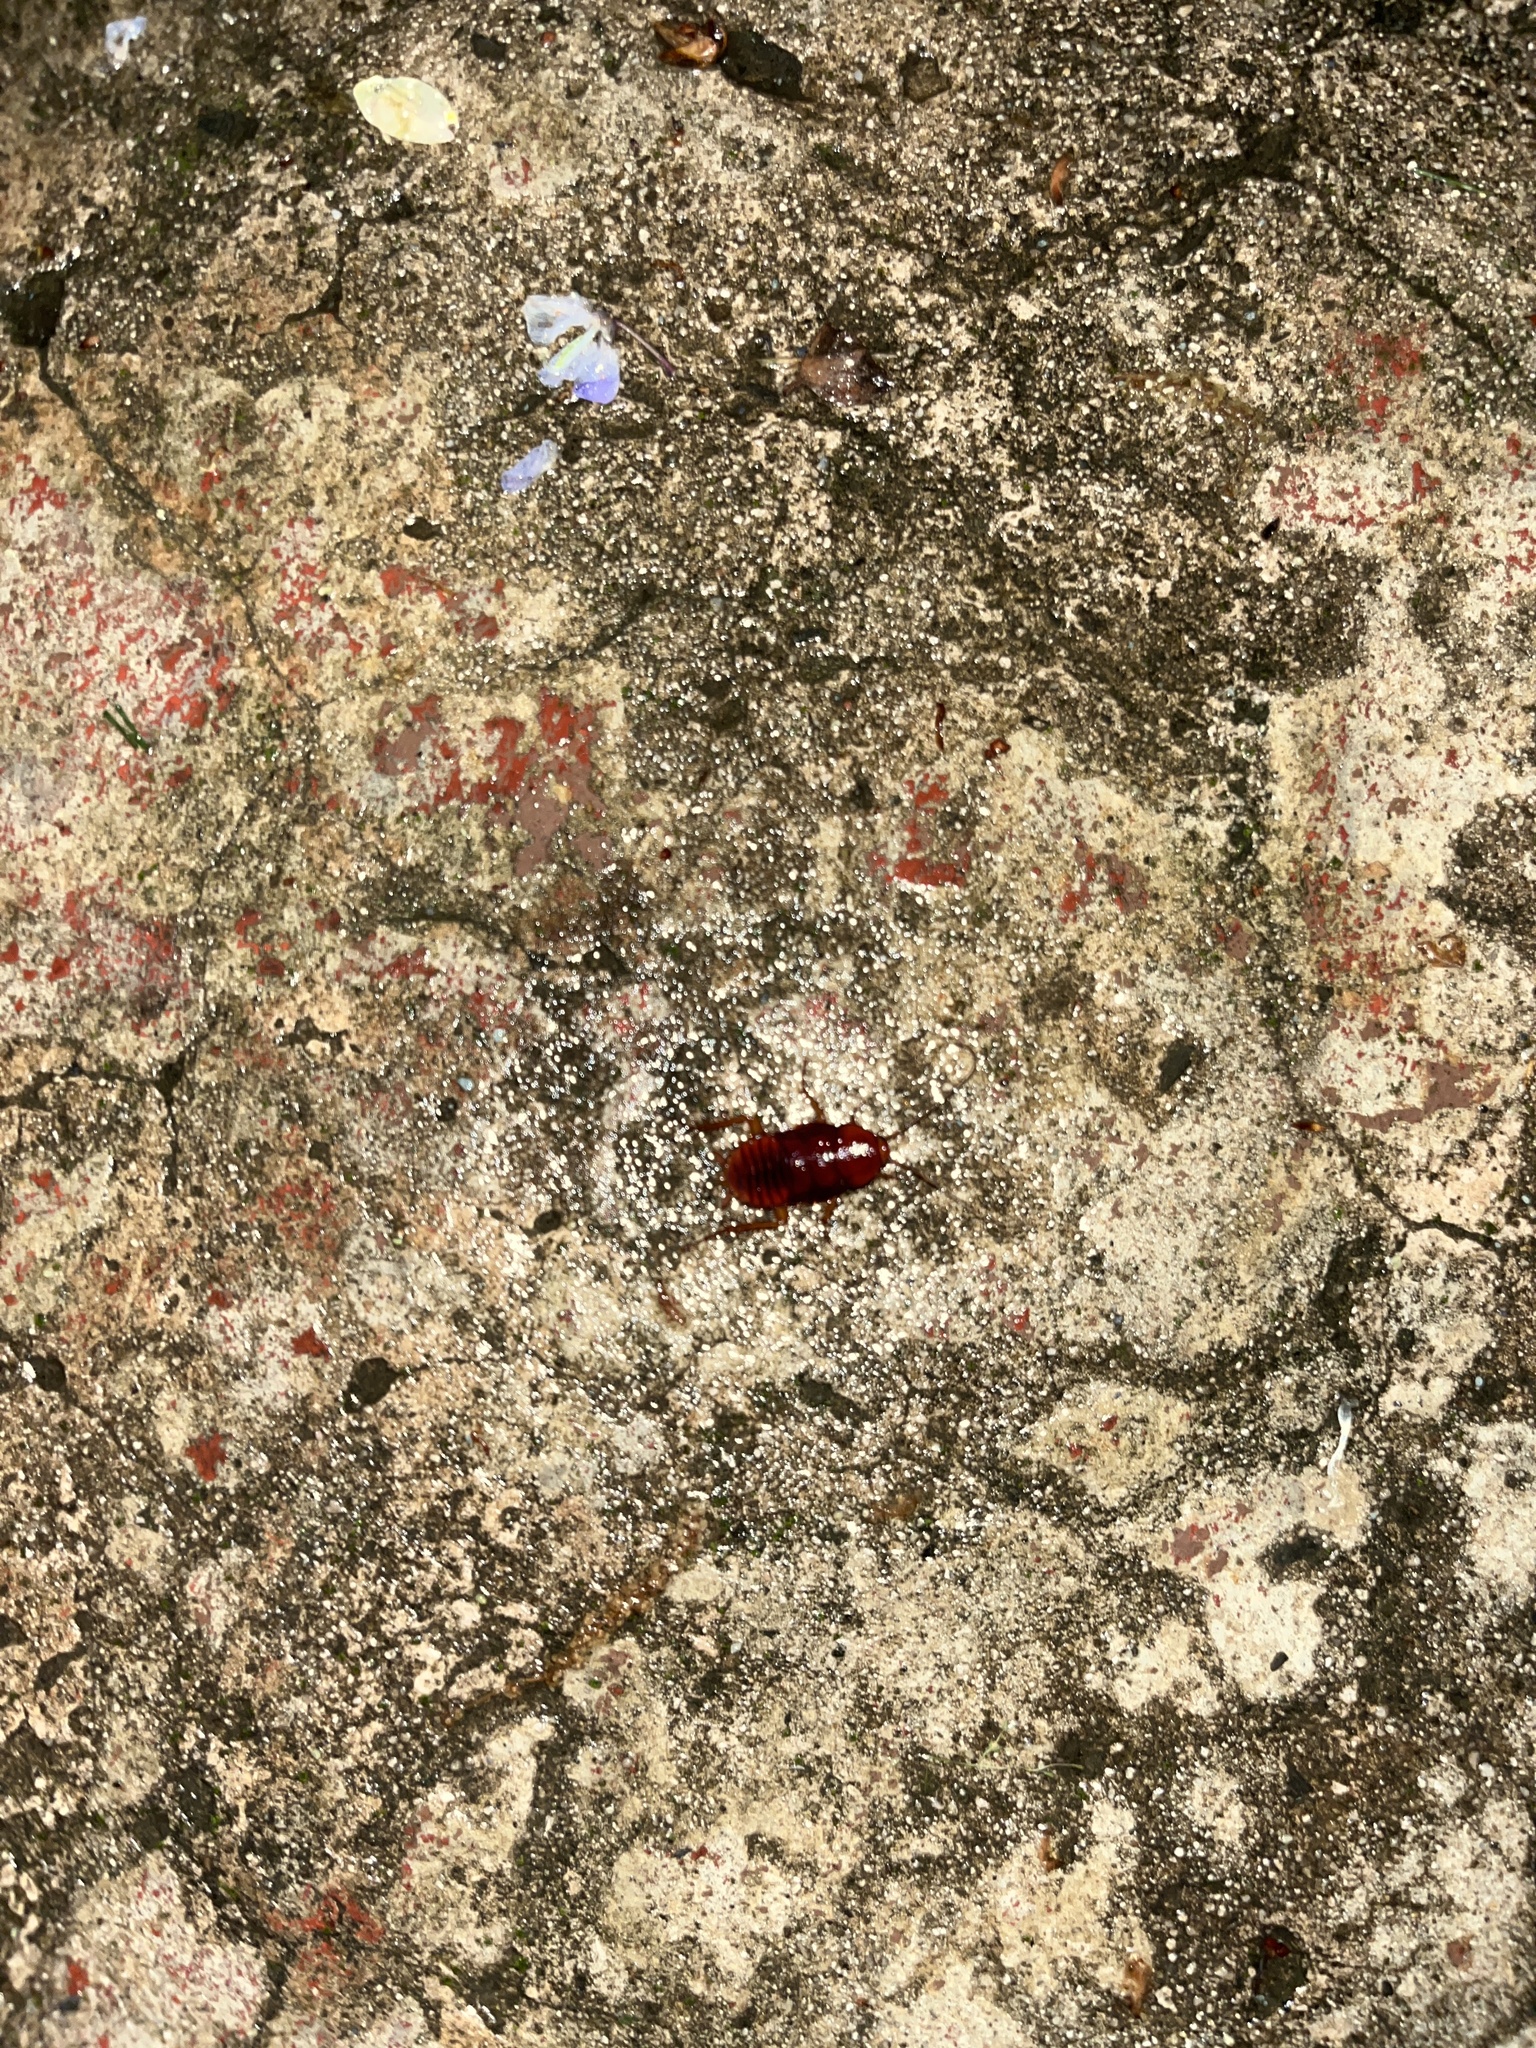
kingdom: Animalia
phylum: Arthropoda
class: Insecta
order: Blattodea
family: Blattidae
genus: Periplaneta
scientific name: Periplaneta fuliginosa
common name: Smokeybrown cockroad
